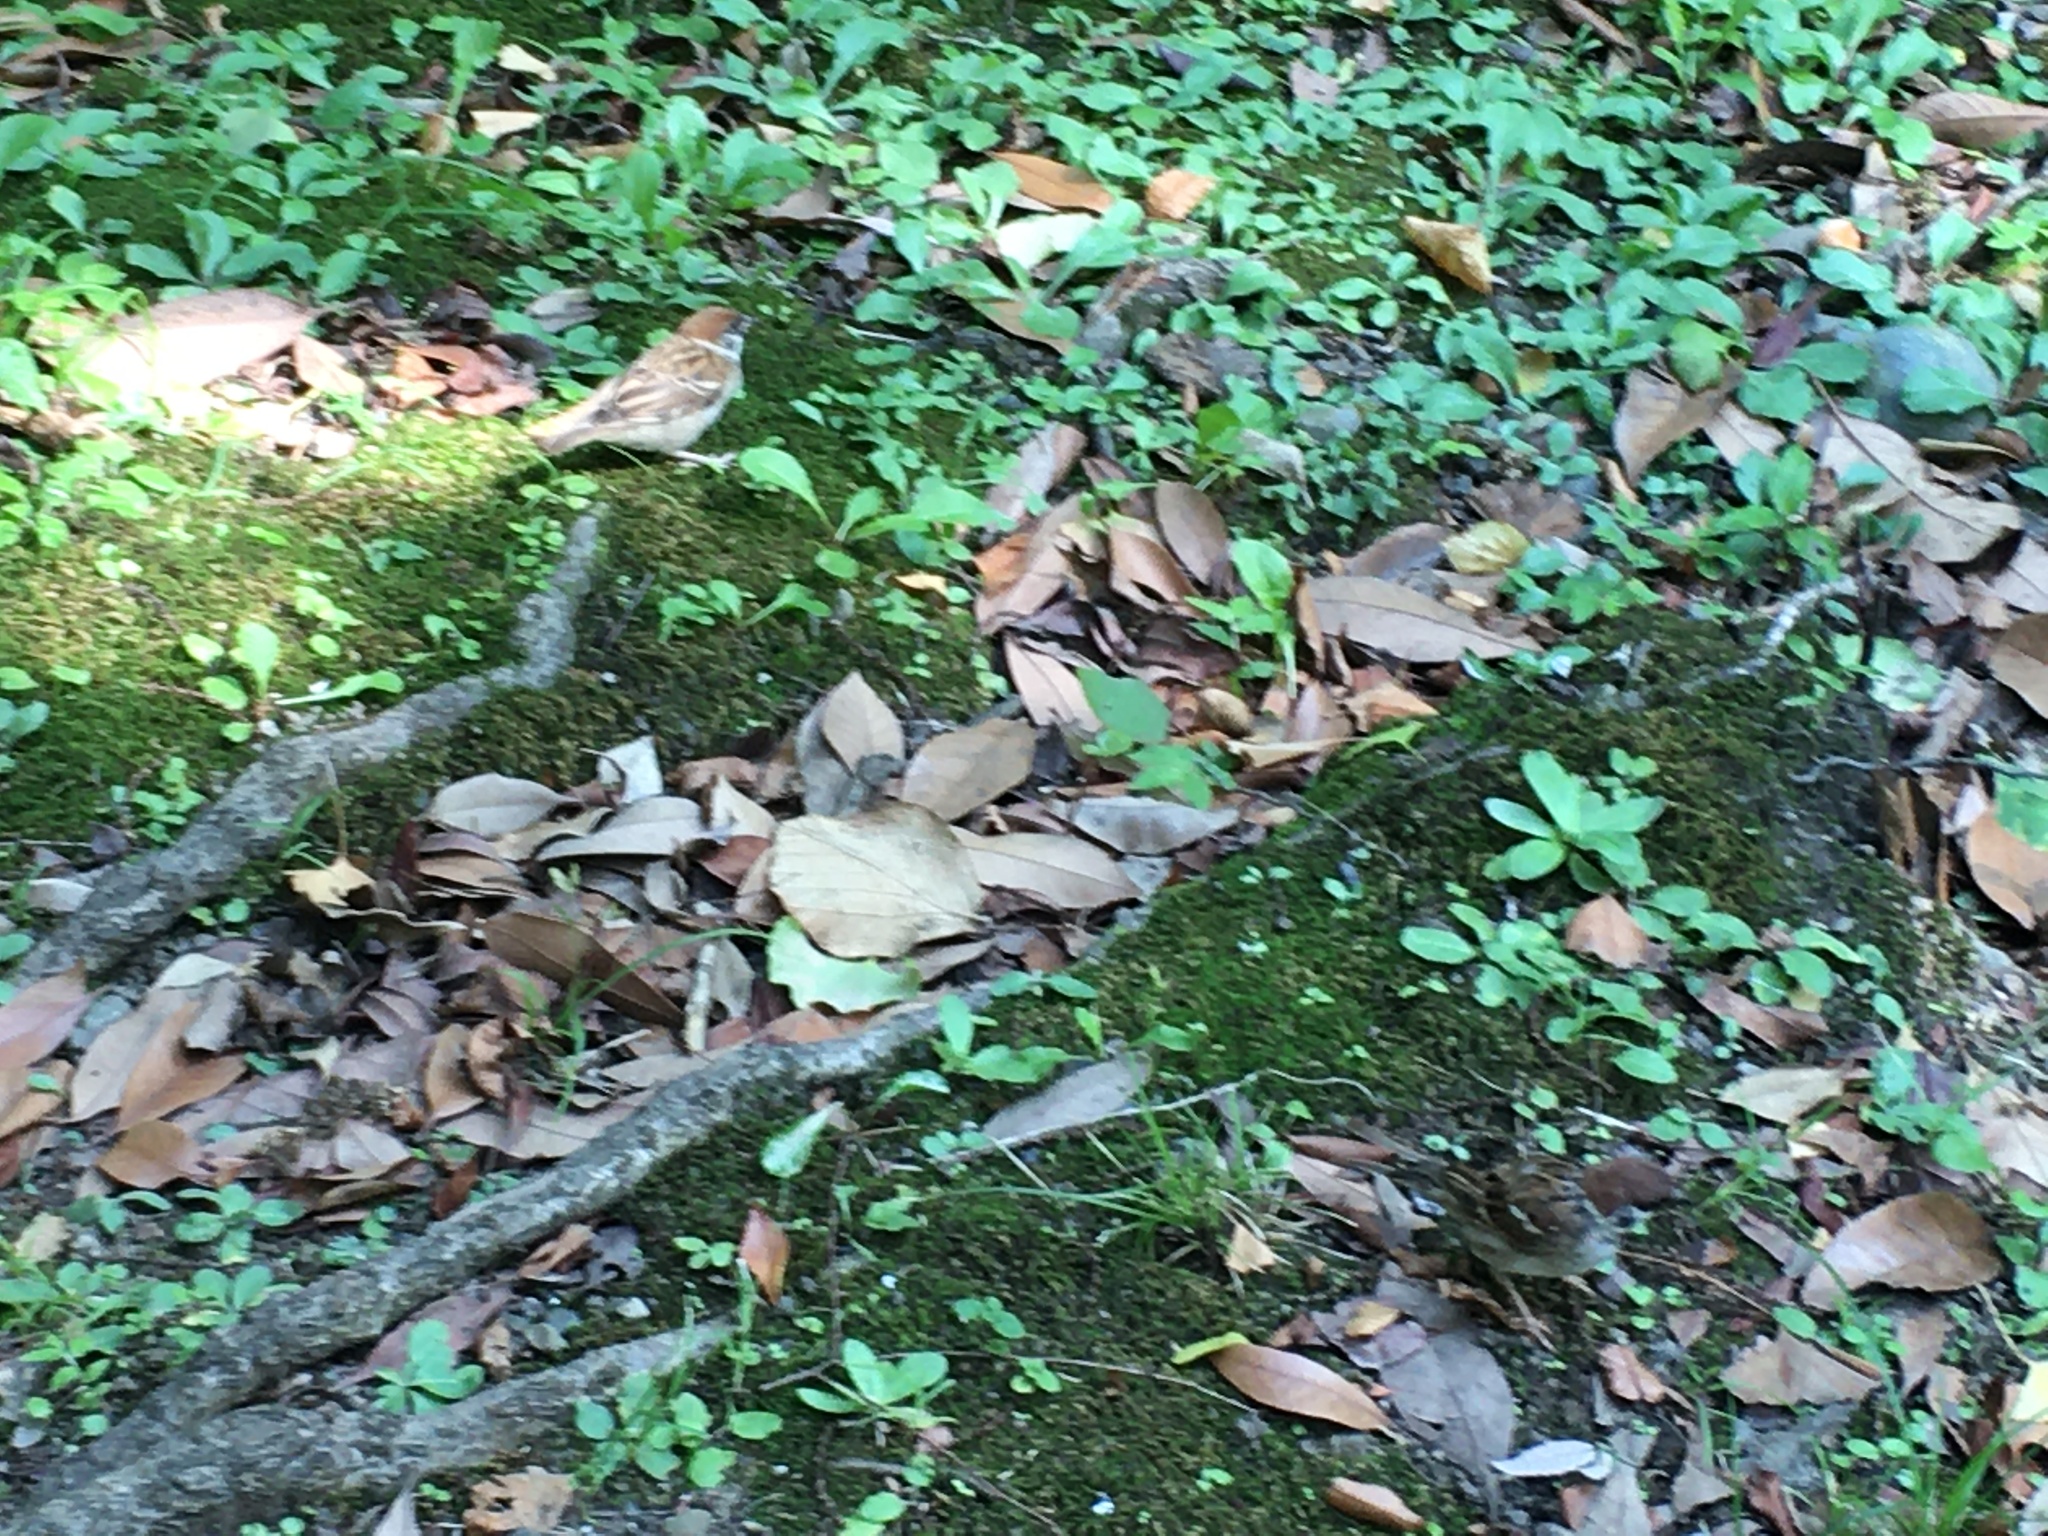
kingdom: Animalia
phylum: Chordata
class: Aves
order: Passeriformes
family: Passeridae
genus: Passer
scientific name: Passer montanus
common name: Eurasian tree sparrow
